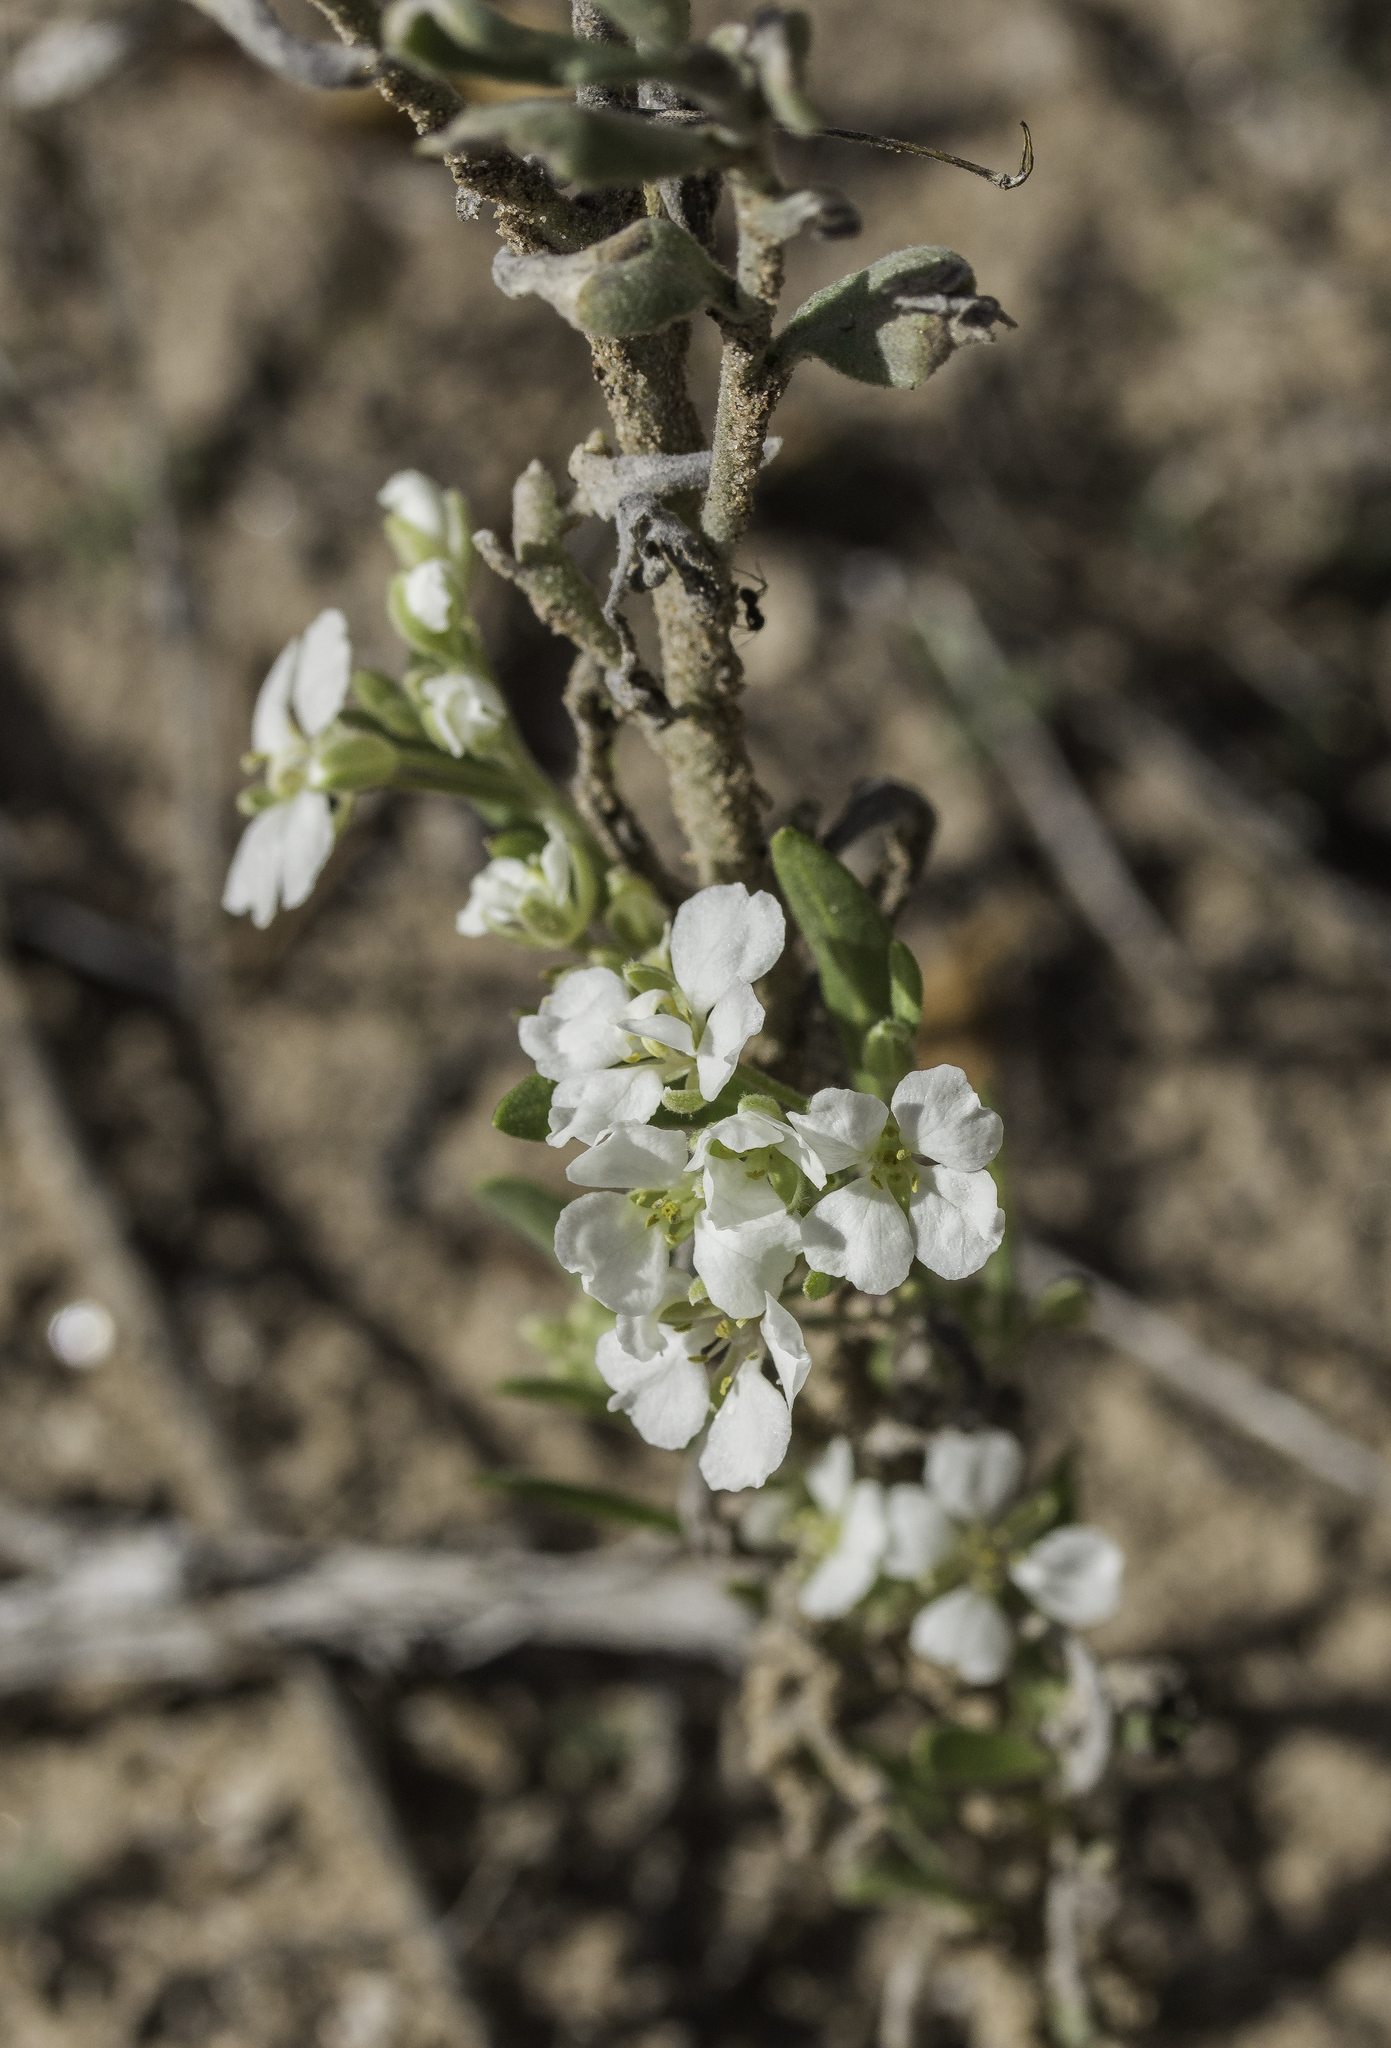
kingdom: Plantae
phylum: Tracheophyta
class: Magnoliopsida
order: Brassicales
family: Brassicaceae
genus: Dimorphocarpa
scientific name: Dimorphocarpa wislizenii
